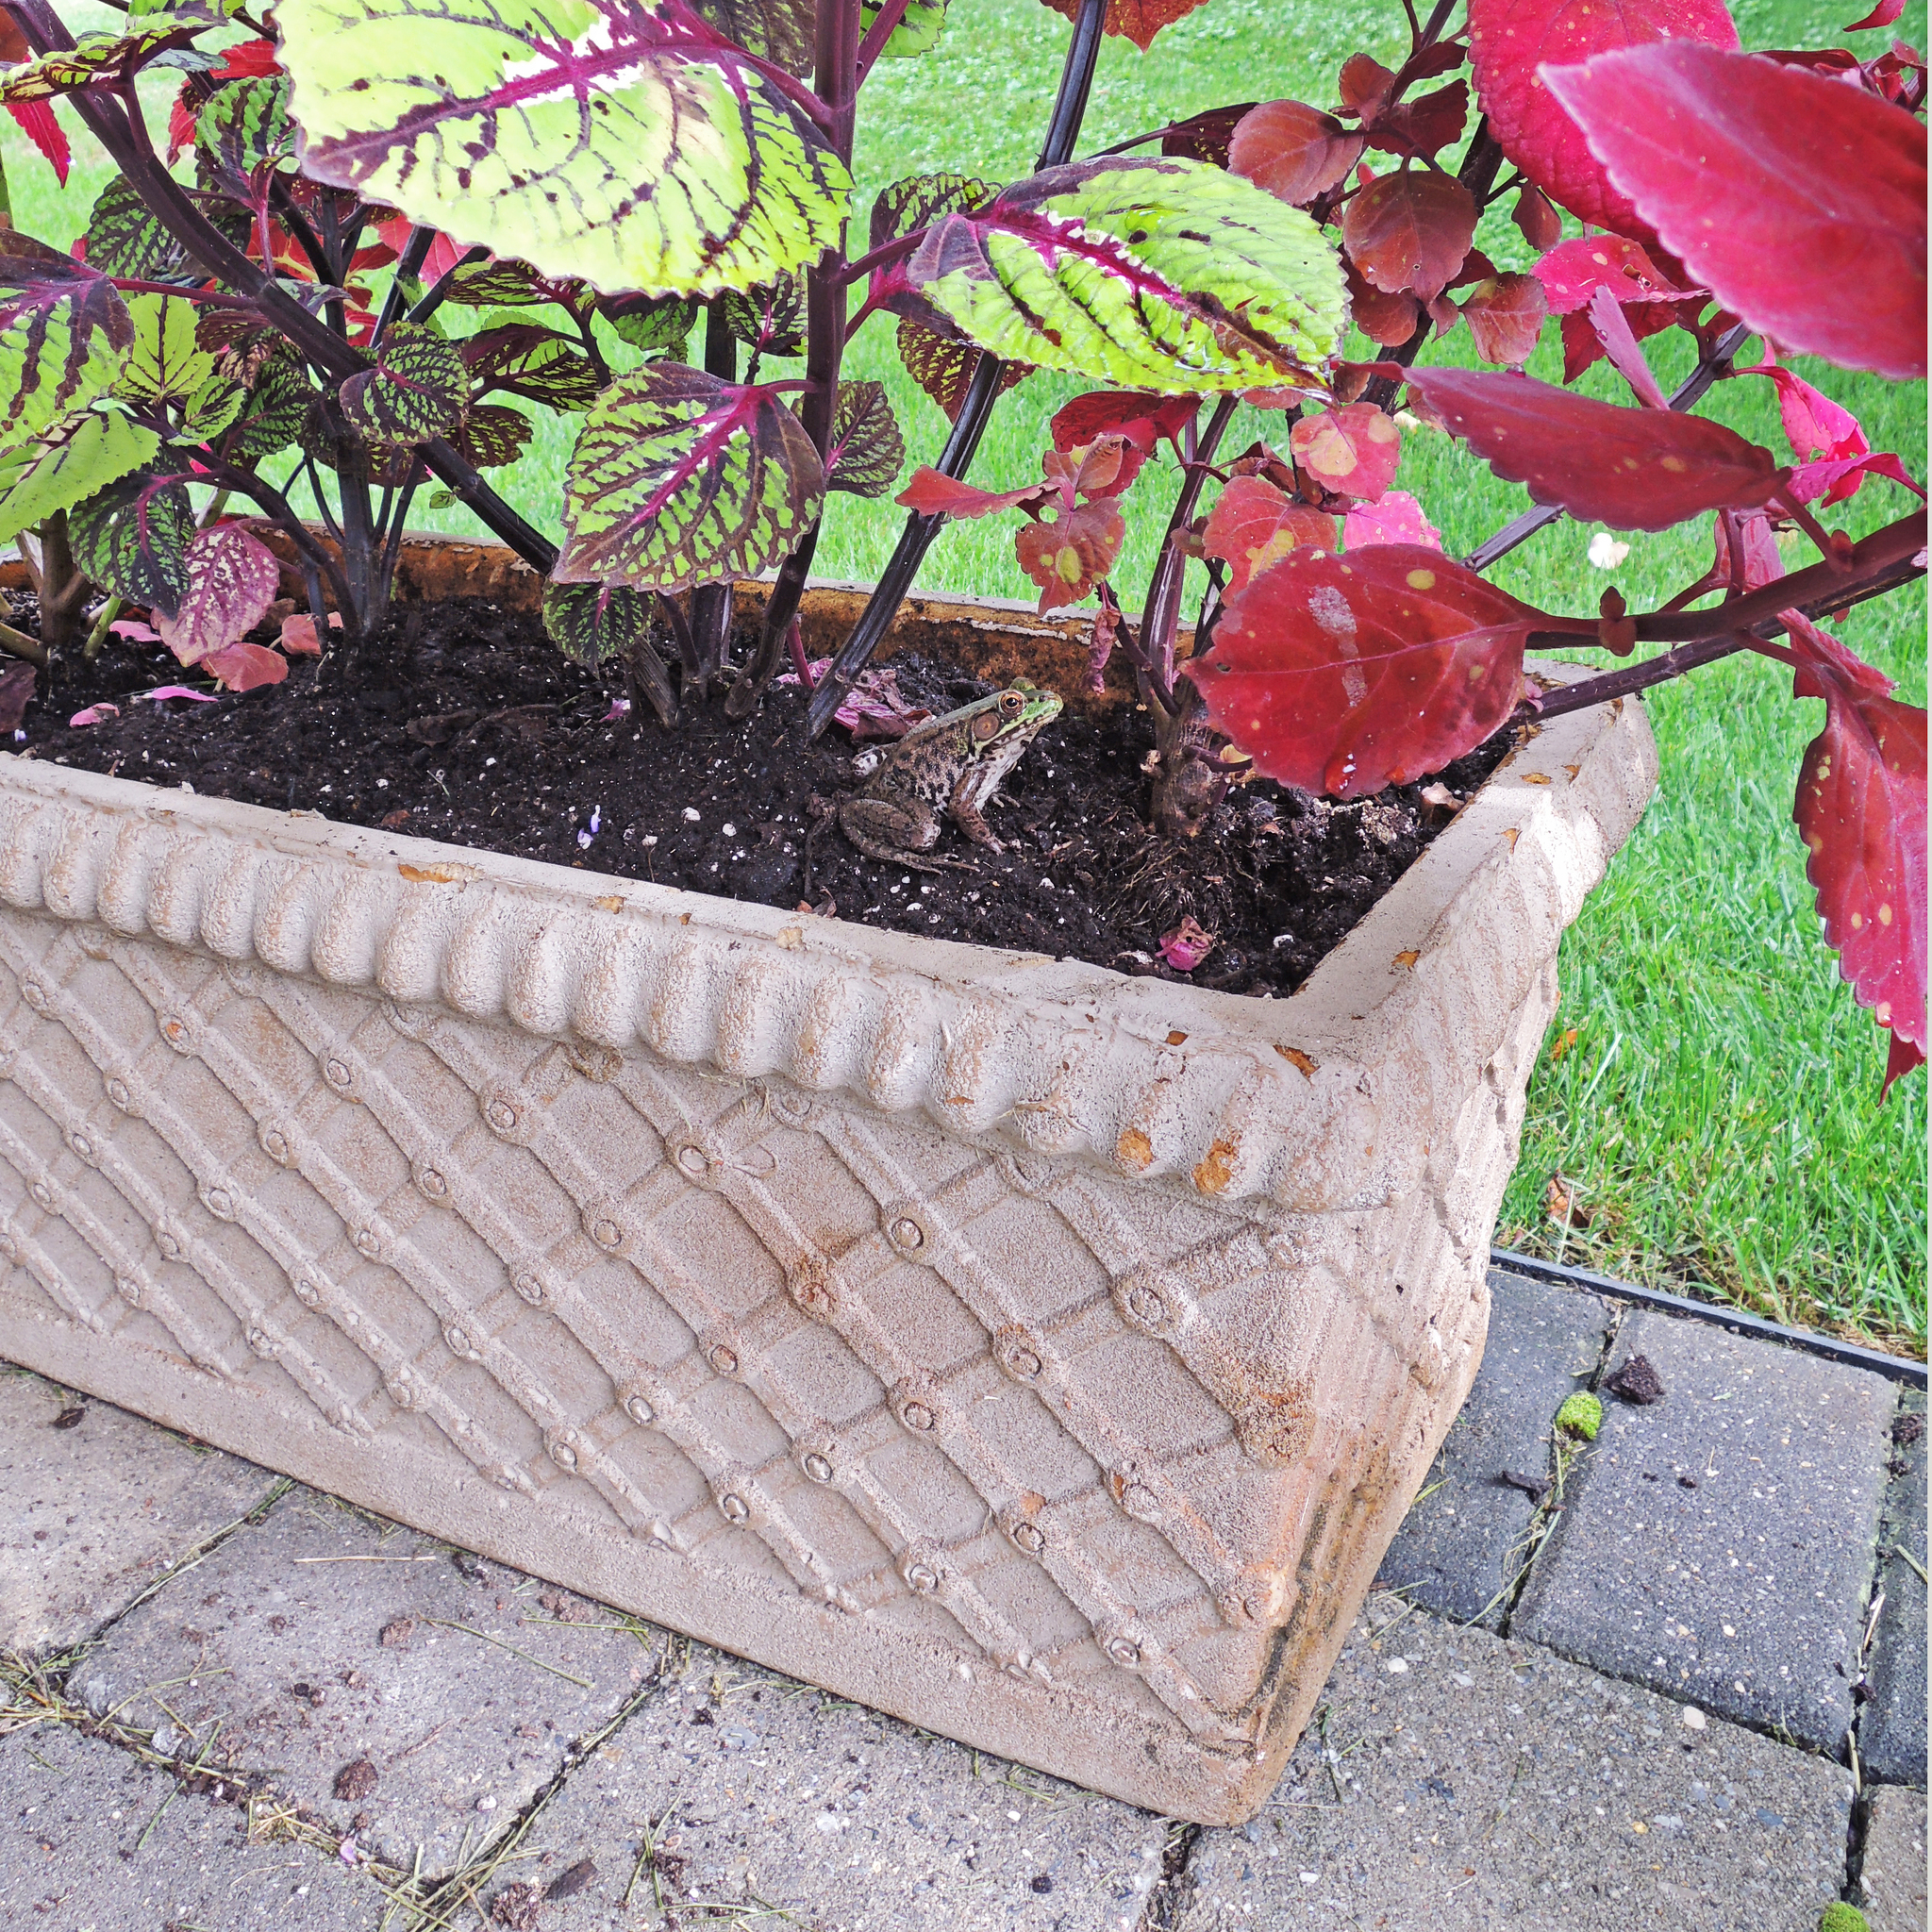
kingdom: Animalia
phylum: Chordata
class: Amphibia
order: Anura
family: Ranidae
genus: Lithobates
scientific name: Lithobates clamitans
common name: Green frog
